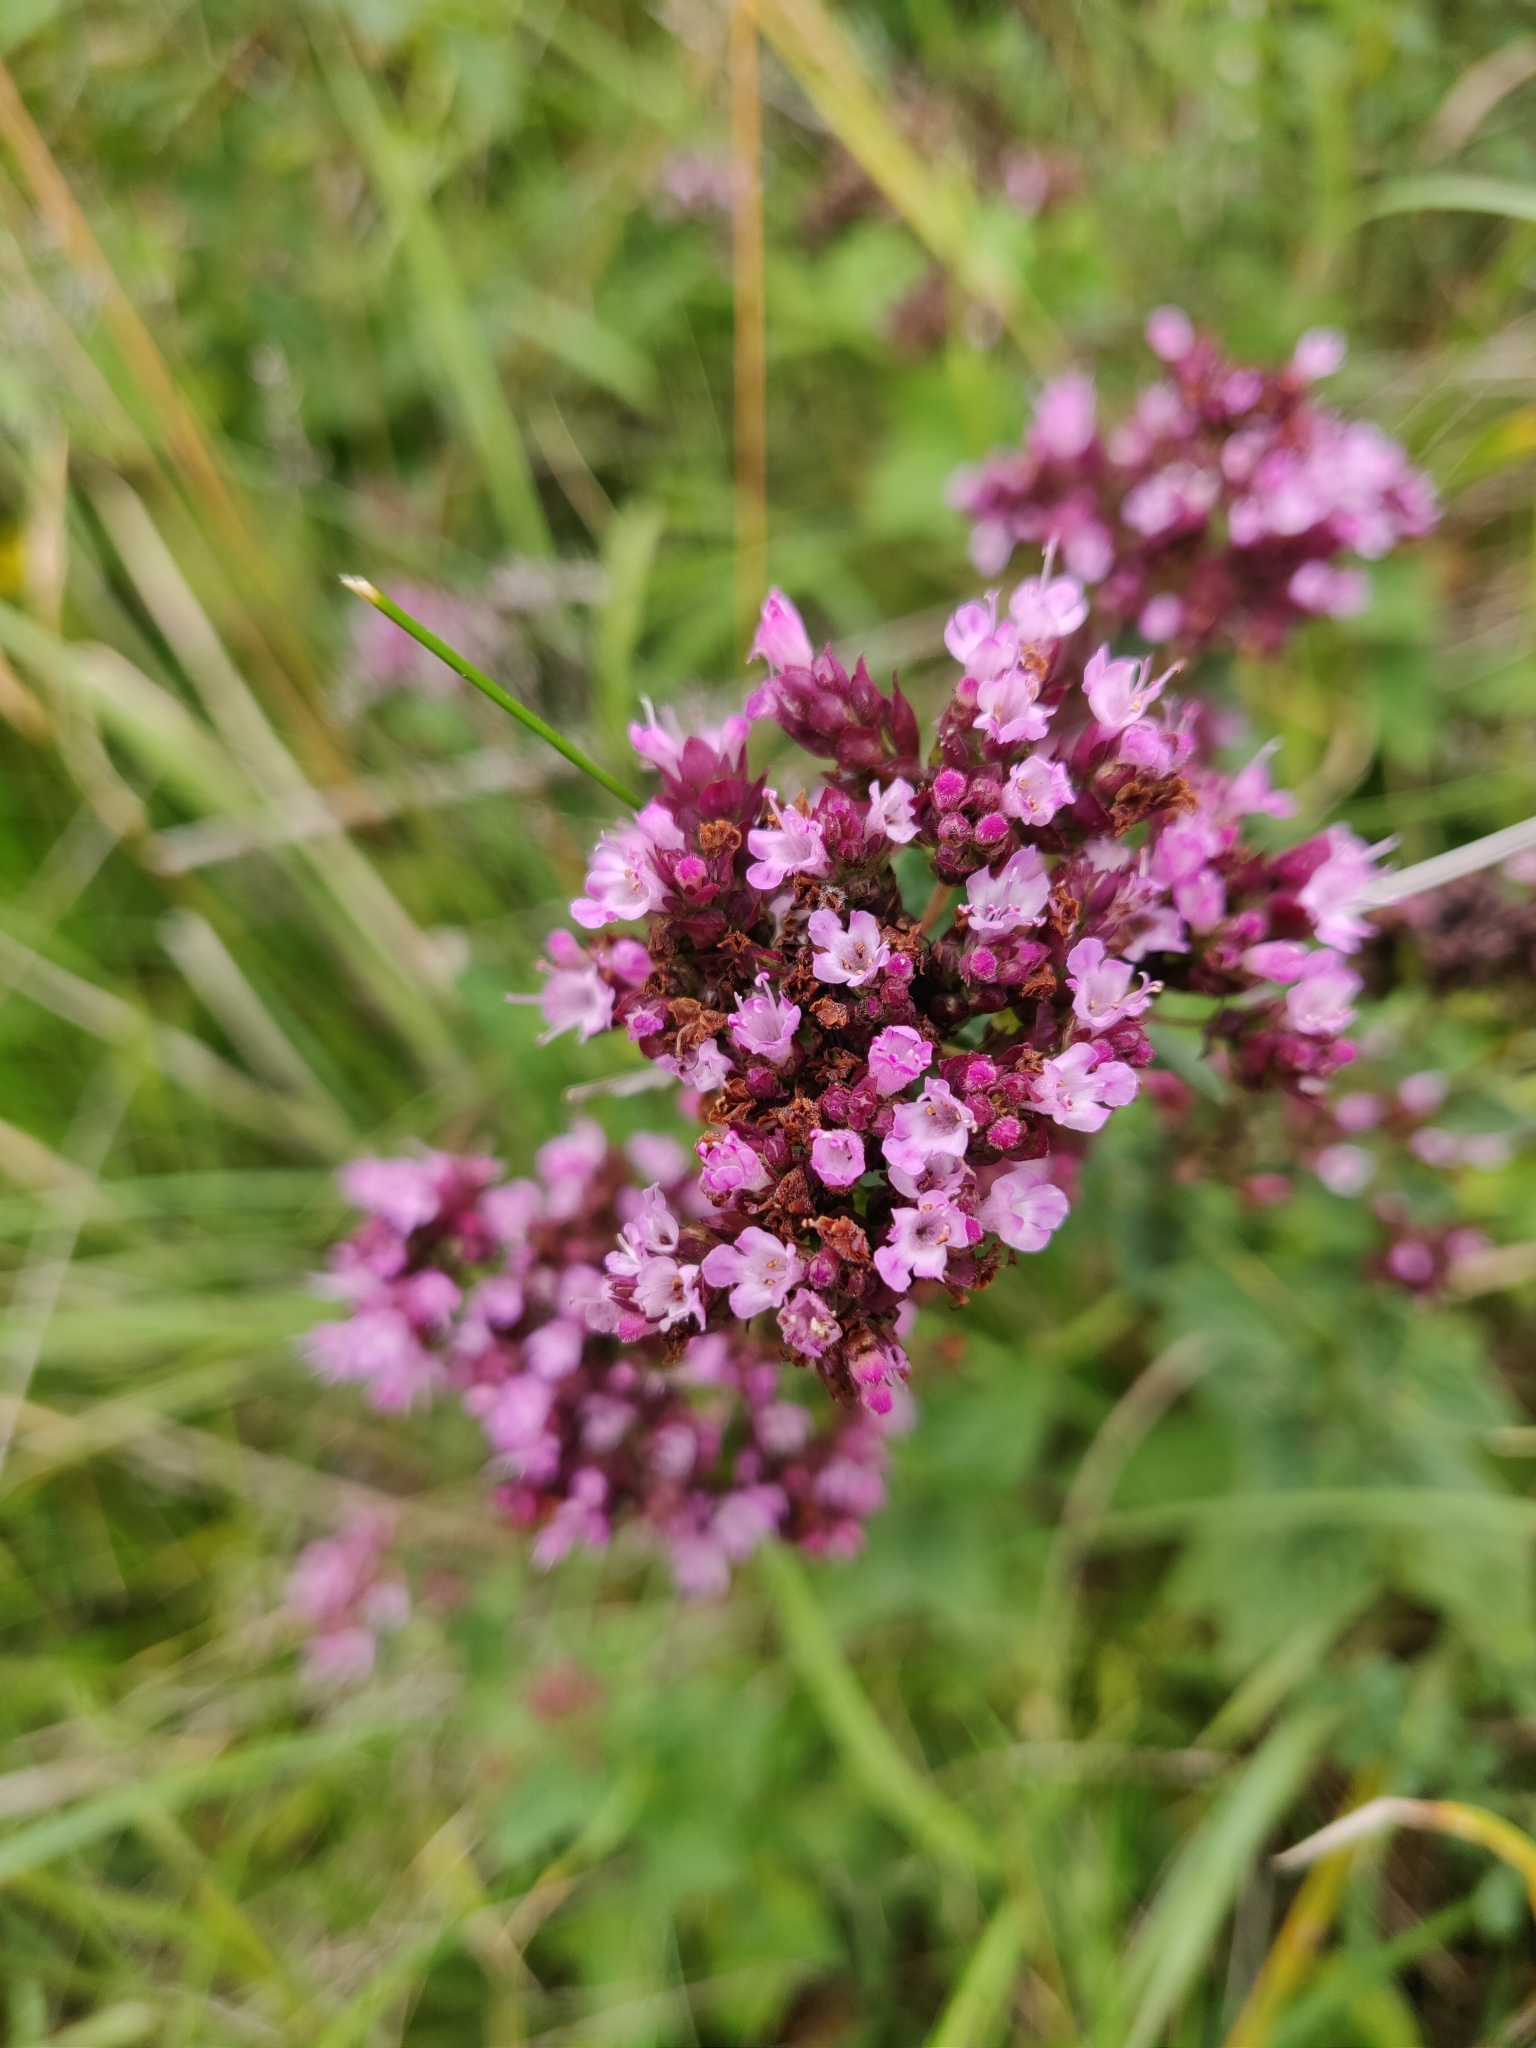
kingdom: Plantae
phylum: Tracheophyta
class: Magnoliopsida
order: Lamiales
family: Lamiaceae
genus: Origanum
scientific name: Origanum vulgare
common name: Wild marjoram
